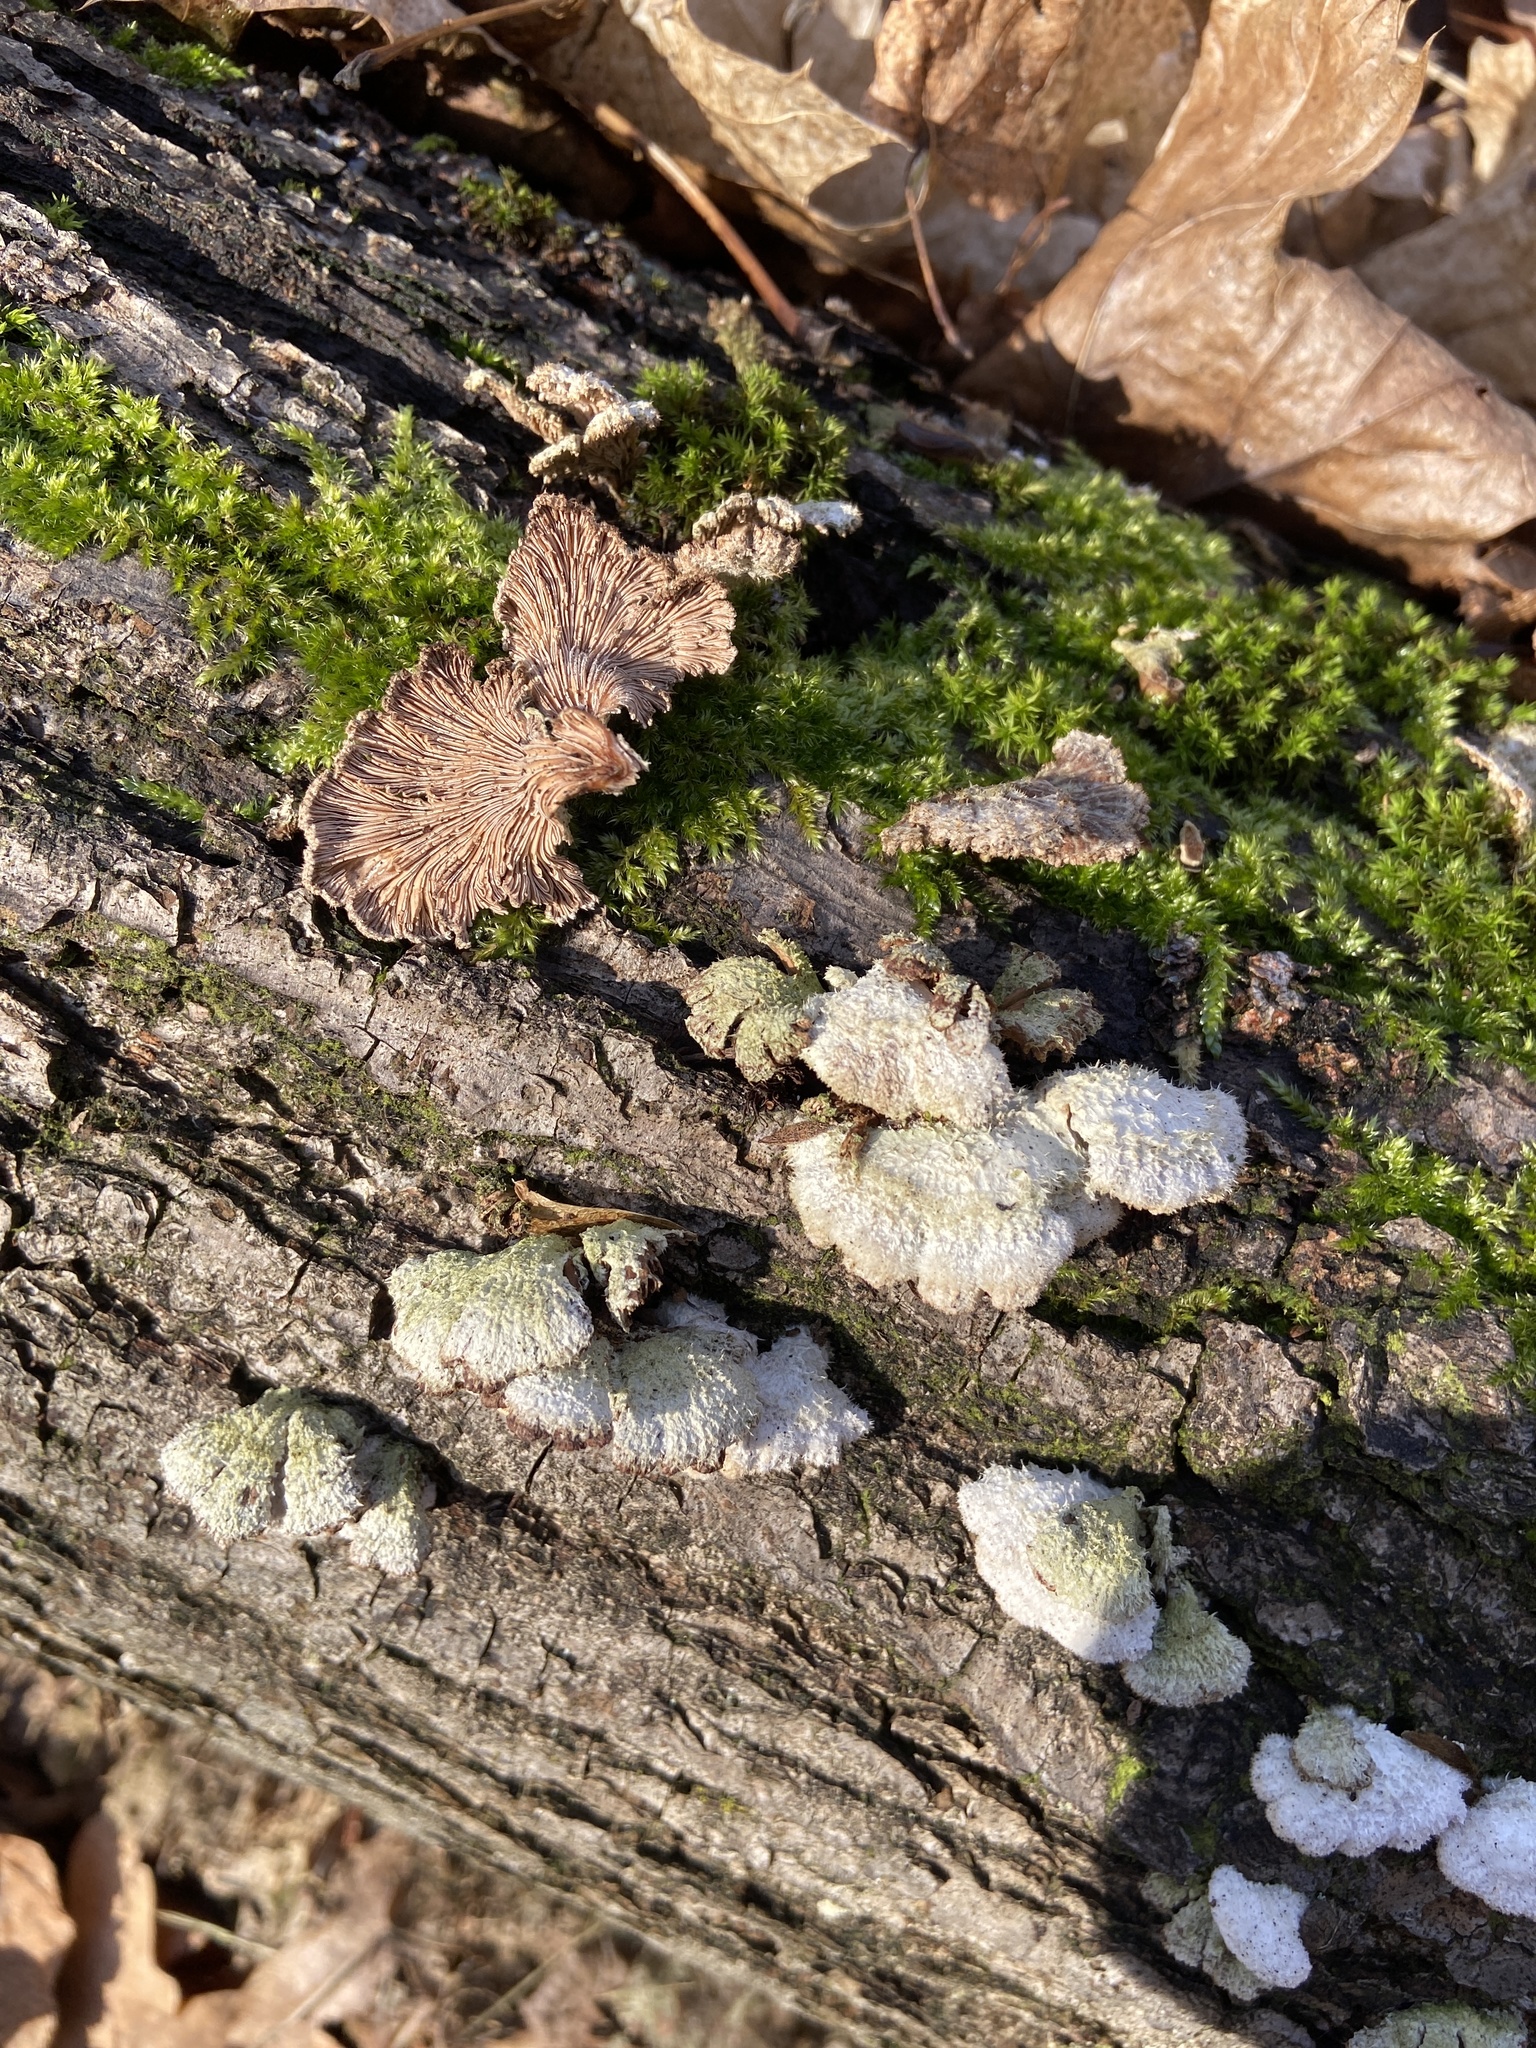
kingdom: Fungi
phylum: Basidiomycota
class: Agaricomycetes
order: Agaricales
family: Schizophyllaceae
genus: Schizophyllum
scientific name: Schizophyllum commune
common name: Common porecrust
